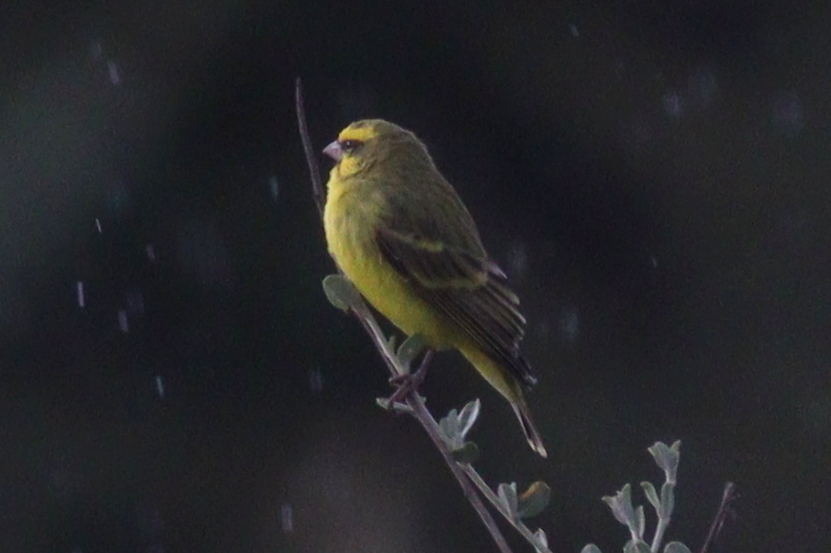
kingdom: Animalia
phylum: Chordata
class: Aves
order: Passeriformes
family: Fringillidae
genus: Crithagra
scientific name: Crithagra mozambica
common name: Yellow-fronted canary
